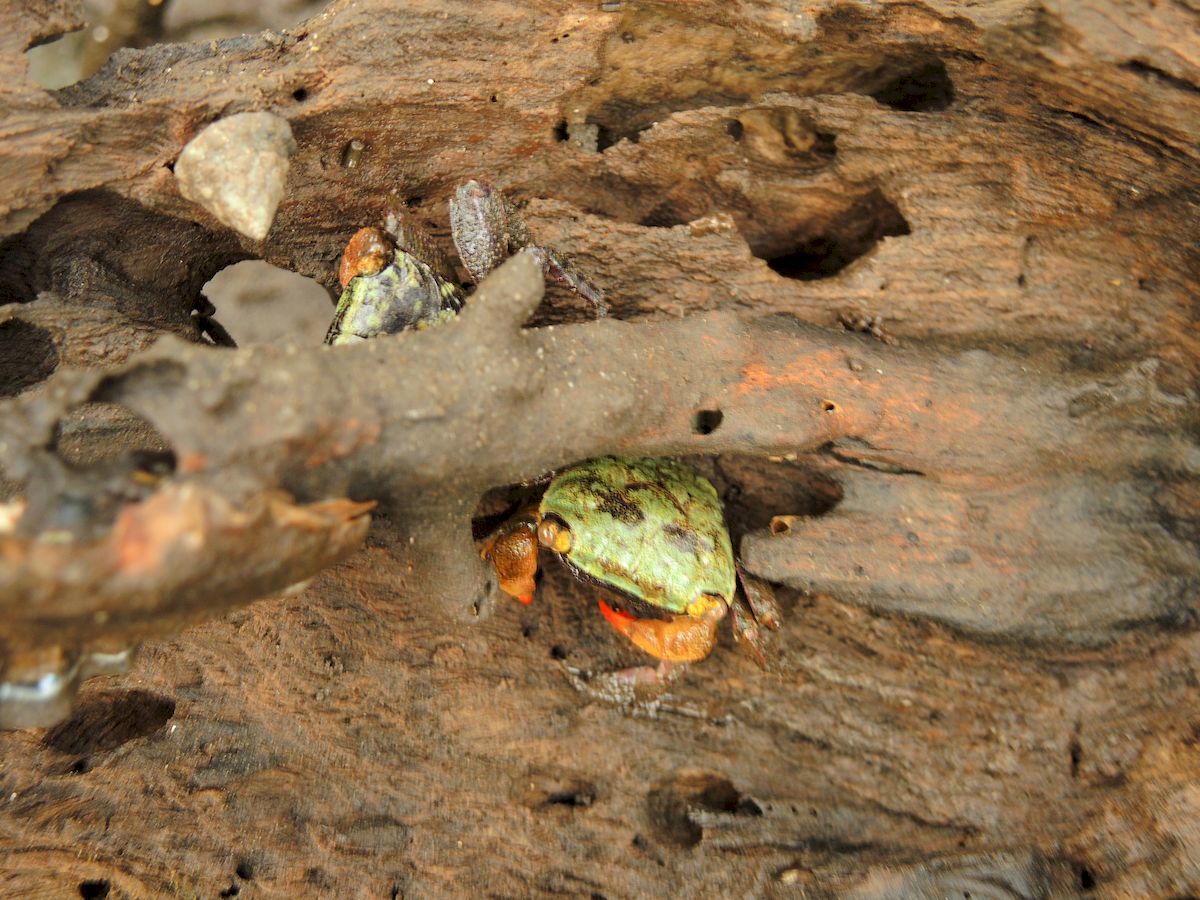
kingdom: Animalia
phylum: Arthropoda
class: Malacostraca
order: Decapoda
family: Sesarmidae
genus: Parasesarma
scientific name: Parasesarma erythodactylum
